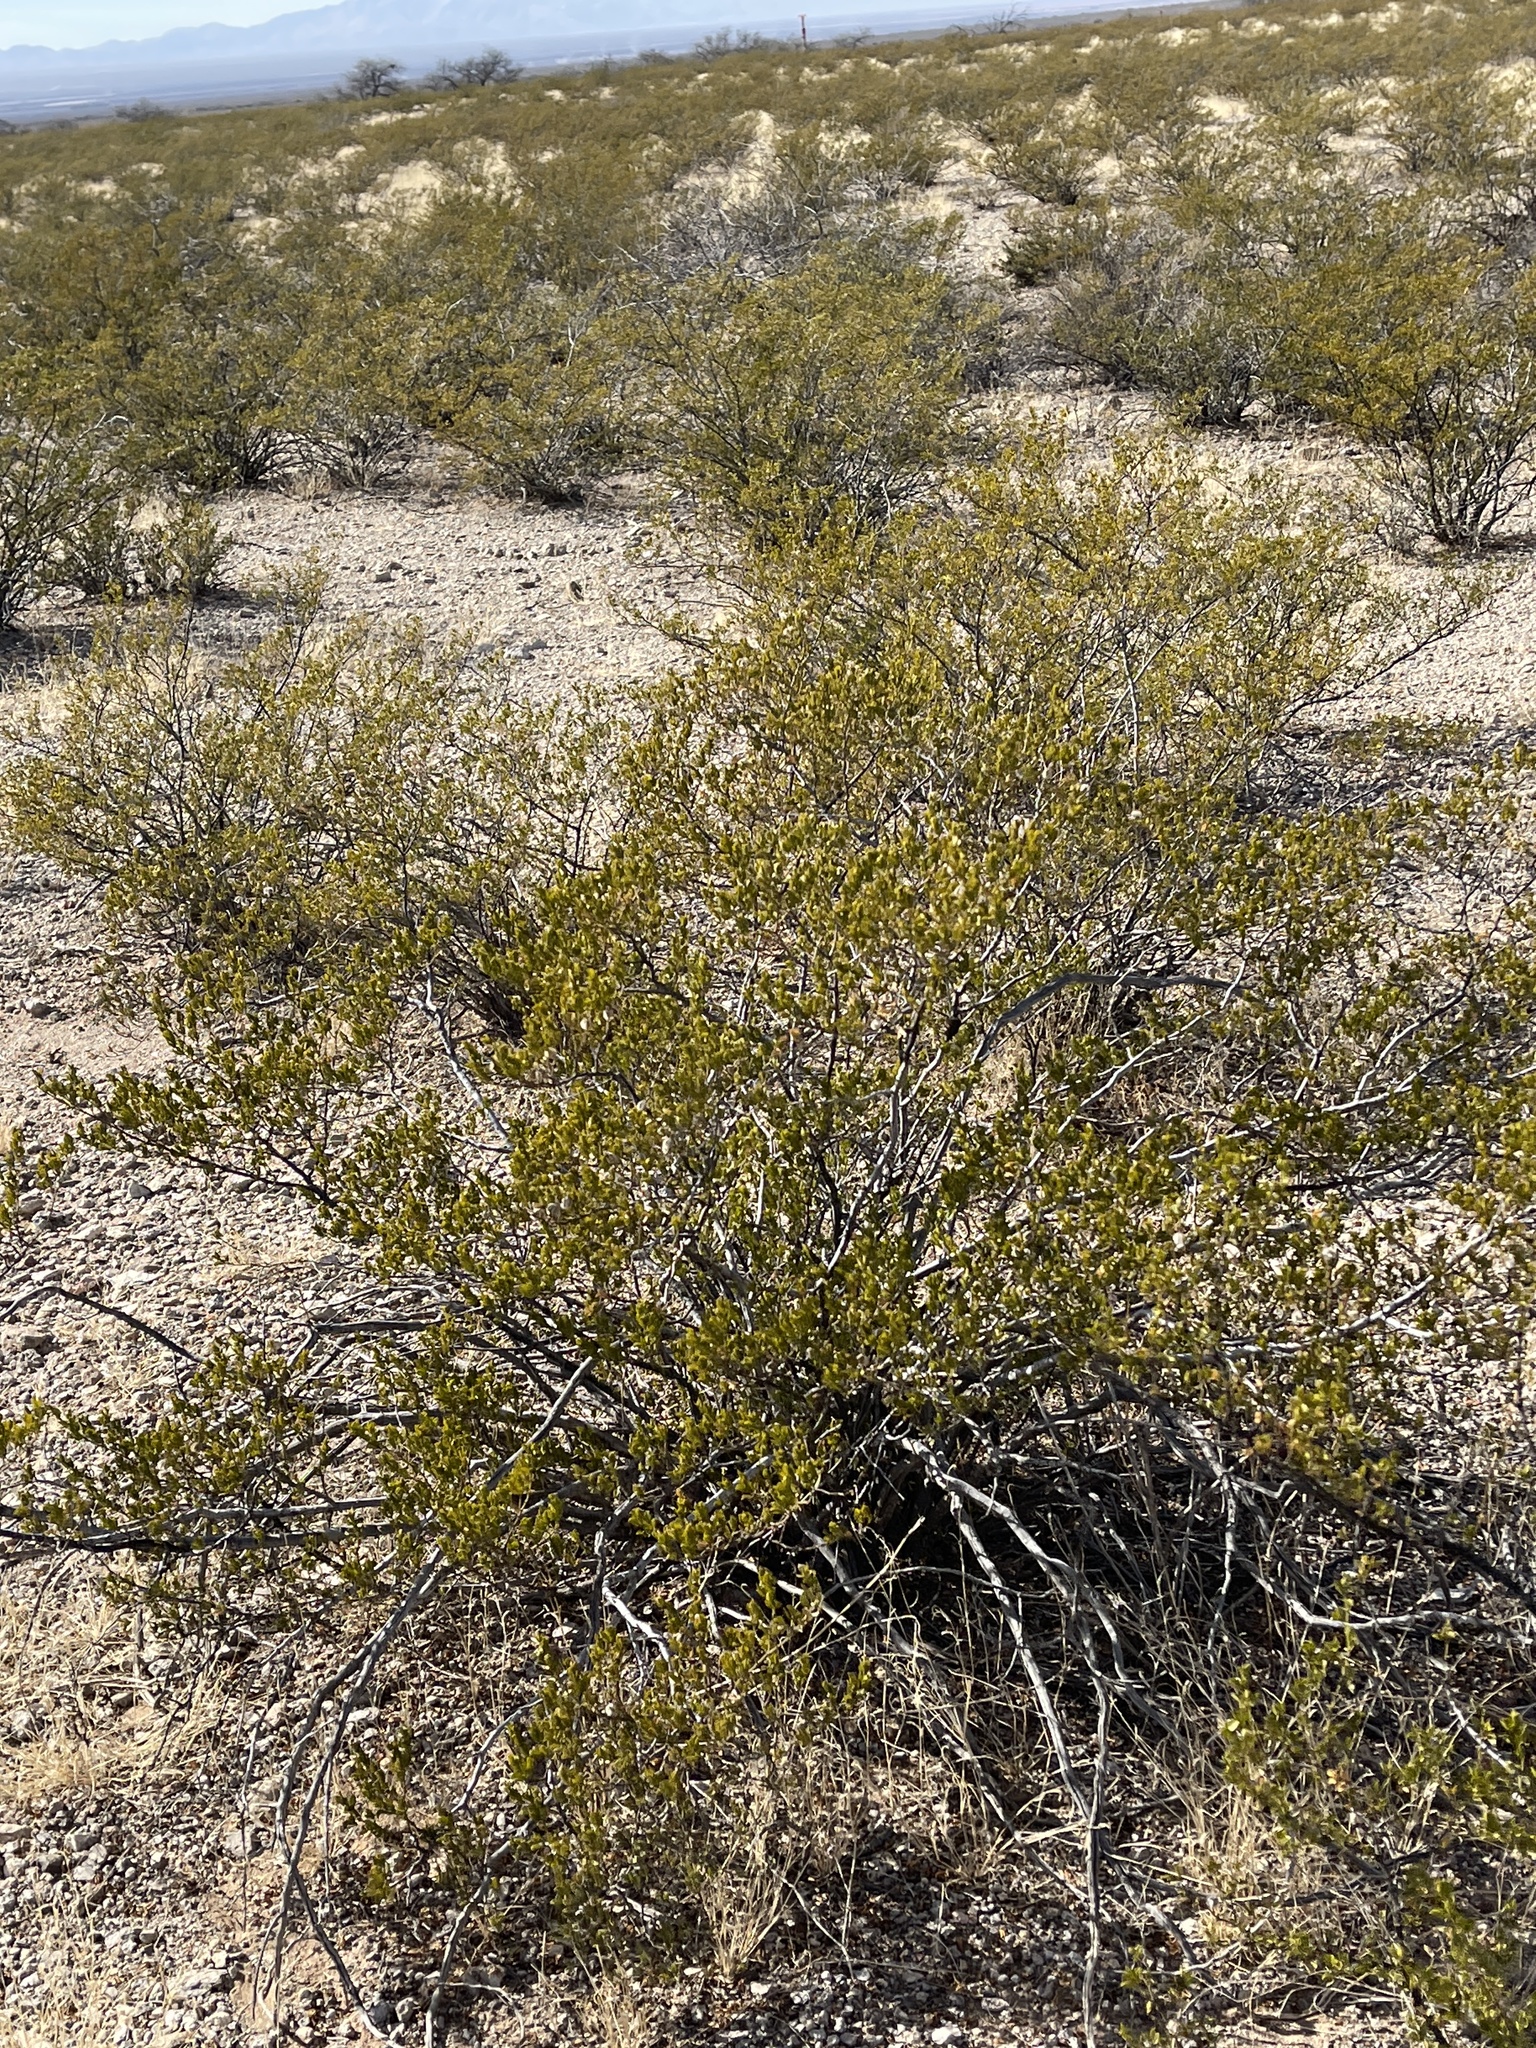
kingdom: Plantae
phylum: Tracheophyta
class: Magnoliopsida
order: Zygophyllales
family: Zygophyllaceae
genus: Larrea
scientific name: Larrea tridentata
